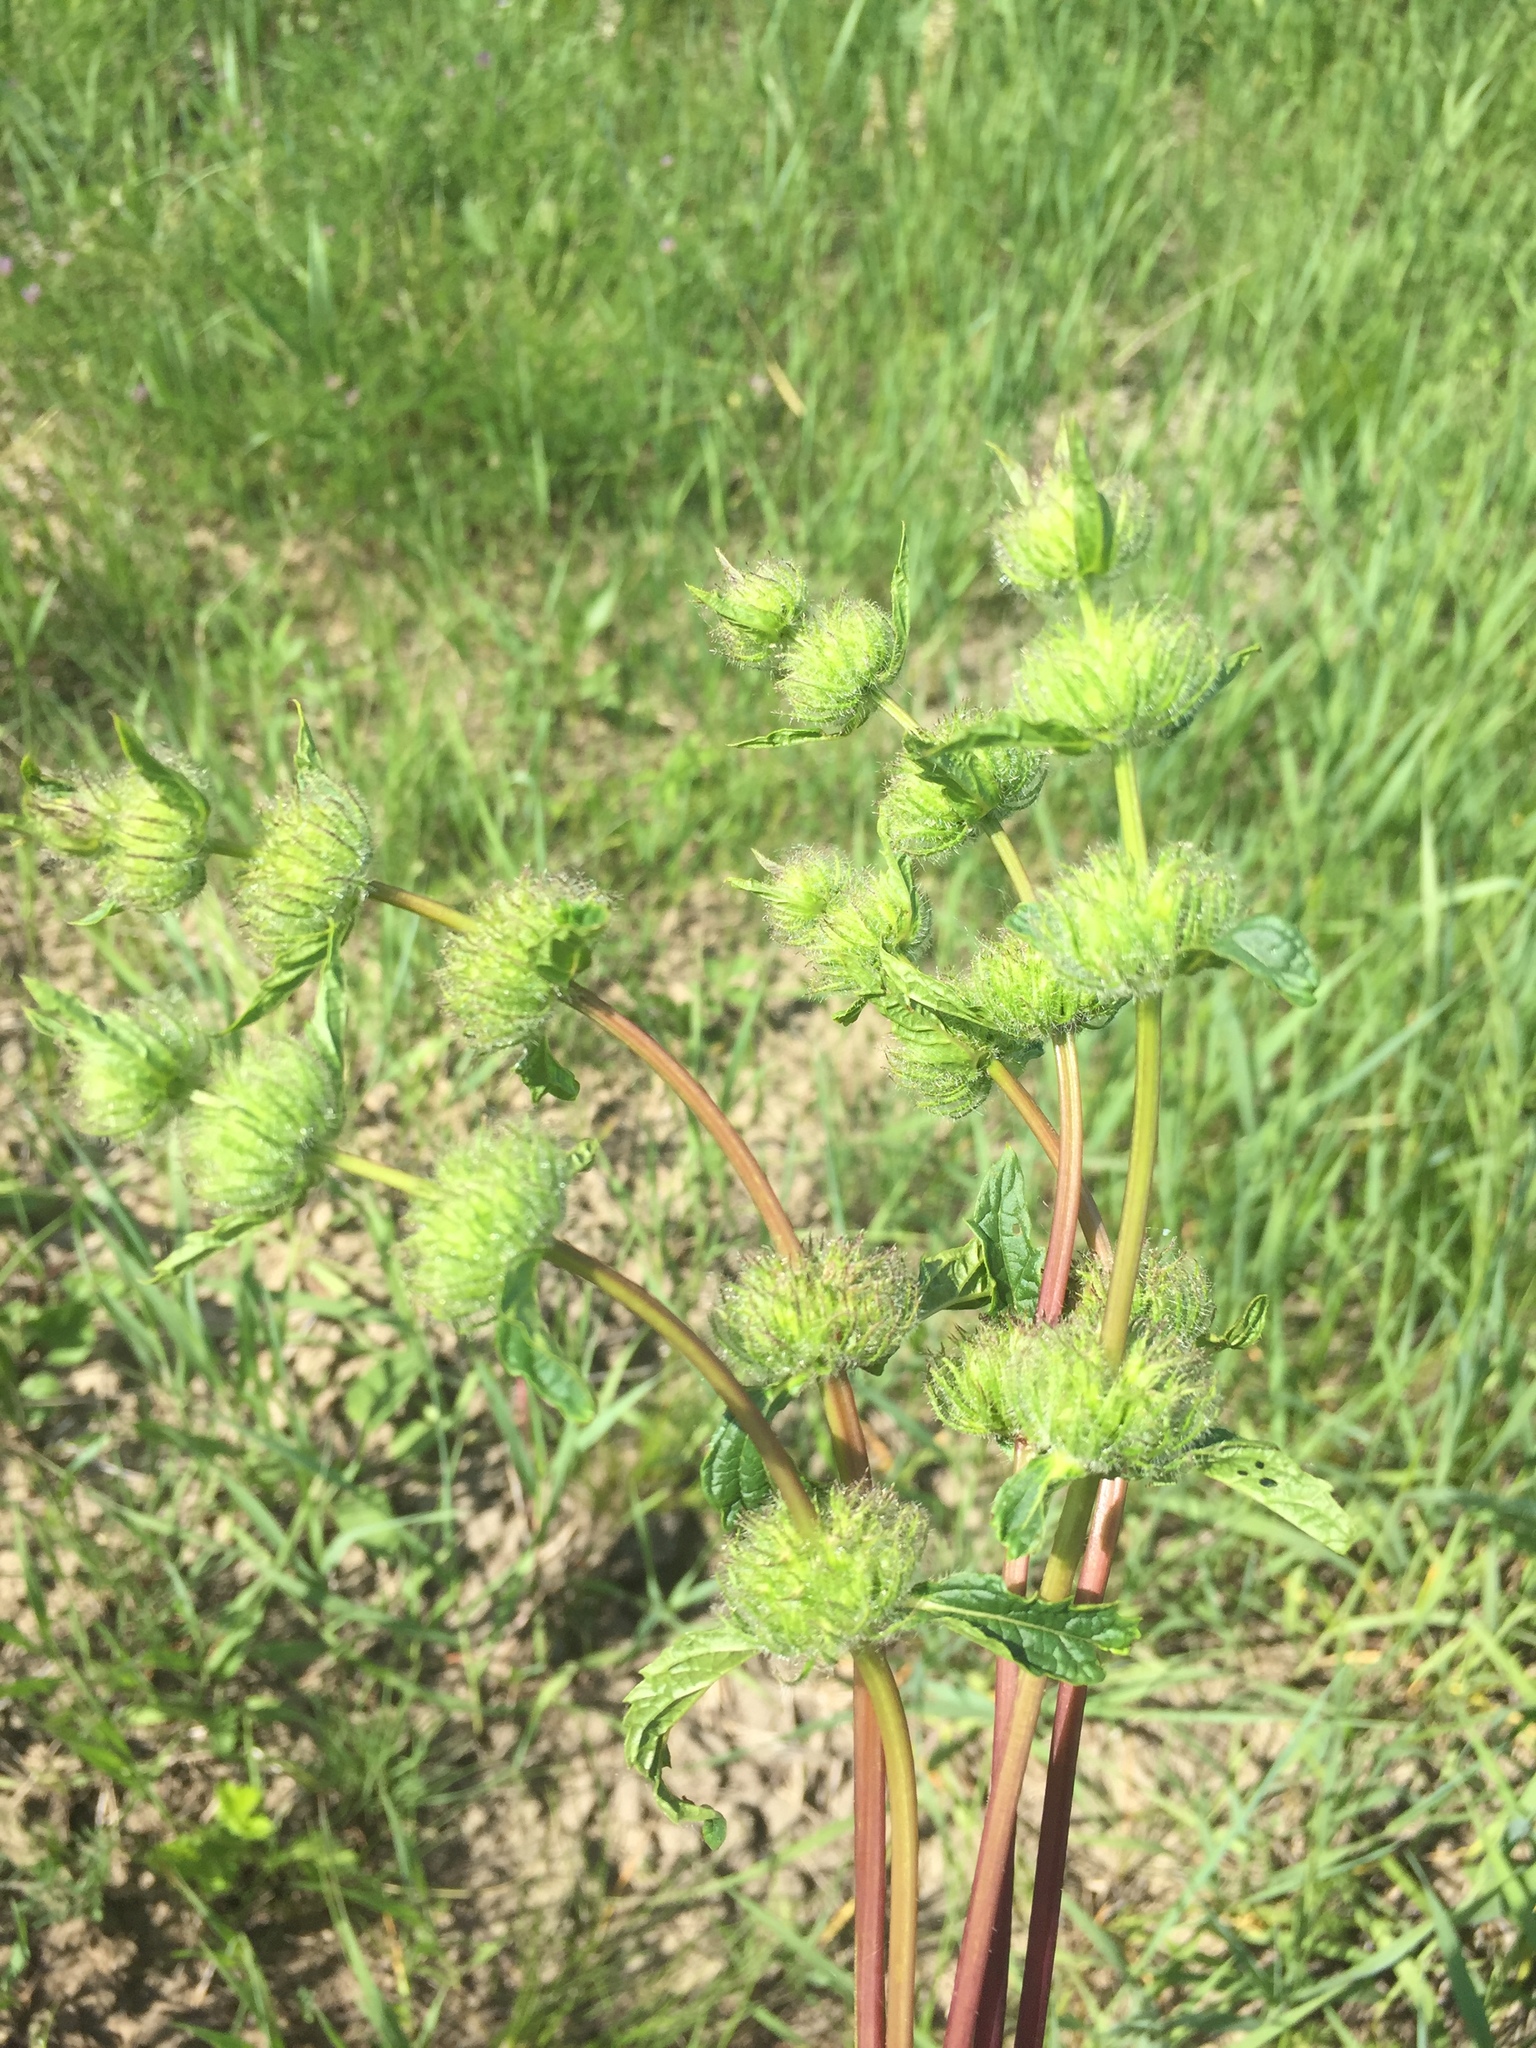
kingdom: Plantae
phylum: Tracheophyta
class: Magnoliopsida
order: Lamiales
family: Lamiaceae
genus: Phlomoides
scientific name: Phlomoides tuberosa
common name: Tuberous jerusalem sage
